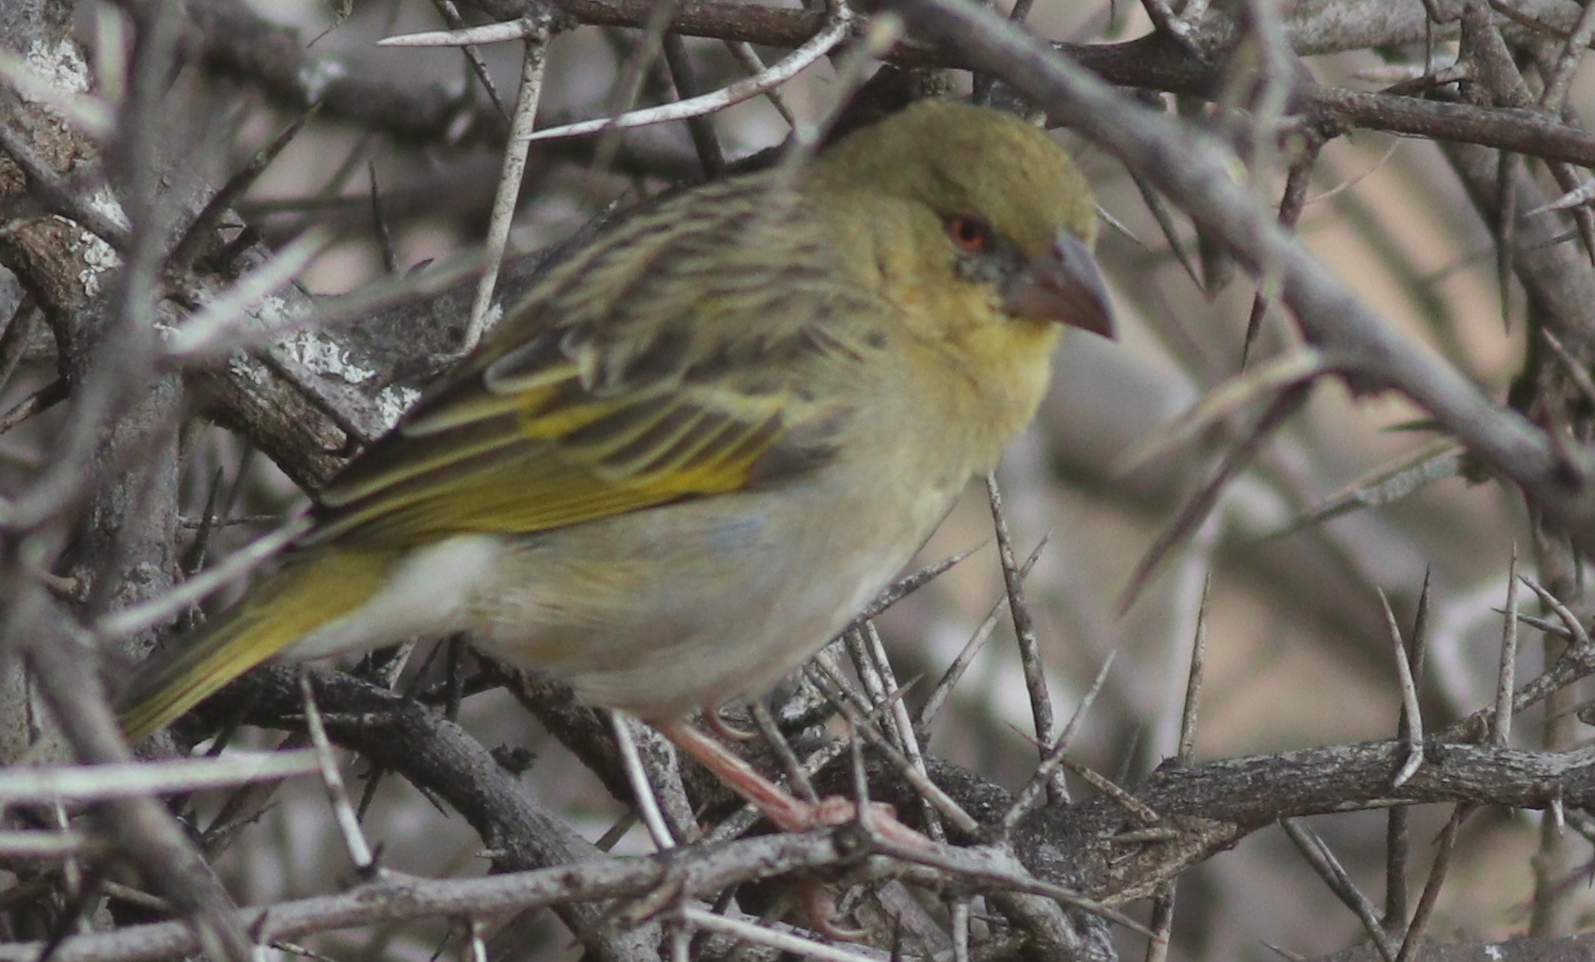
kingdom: Animalia
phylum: Chordata
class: Aves
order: Passeriformes
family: Ploceidae
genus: Ploceus
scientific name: Ploceus galbula
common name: Rüppell's weaver
